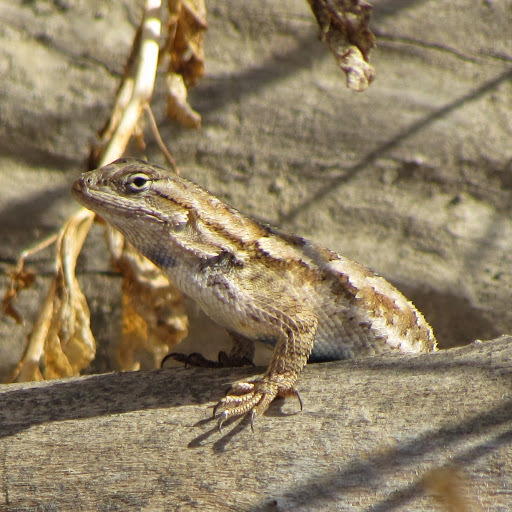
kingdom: Animalia
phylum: Chordata
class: Squamata
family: Phrynosomatidae
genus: Sceloporus
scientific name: Sceloporus occidentalis
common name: Western fence lizard
